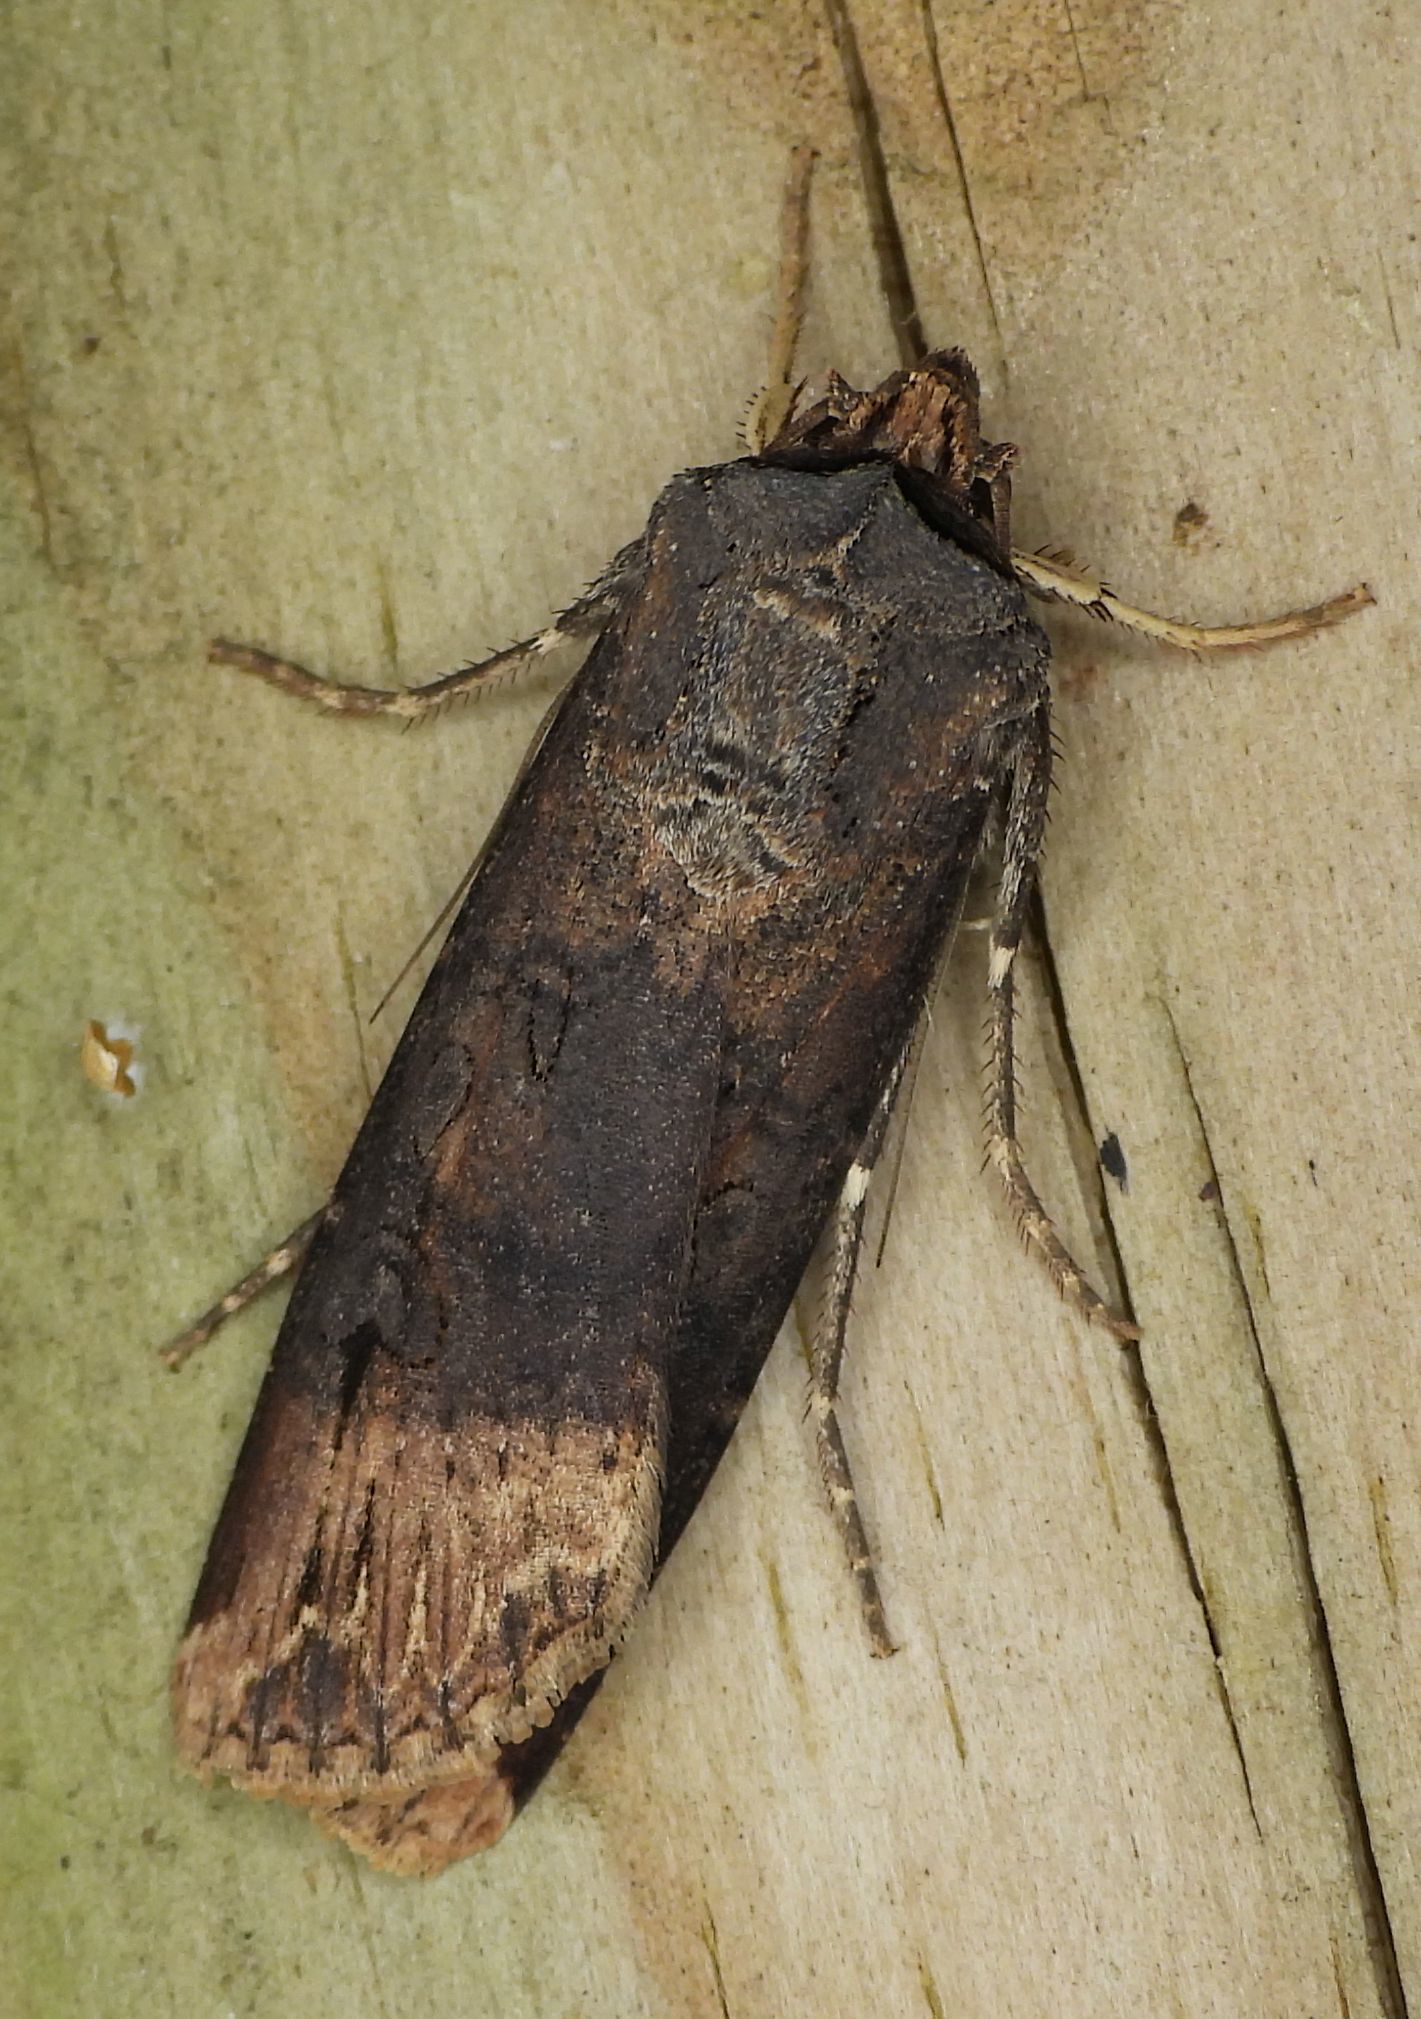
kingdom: Animalia
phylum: Arthropoda
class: Insecta
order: Lepidoptera
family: Noctuidae
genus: Agrotis
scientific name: Agrotis ipsilon
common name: Dark sword-grass
